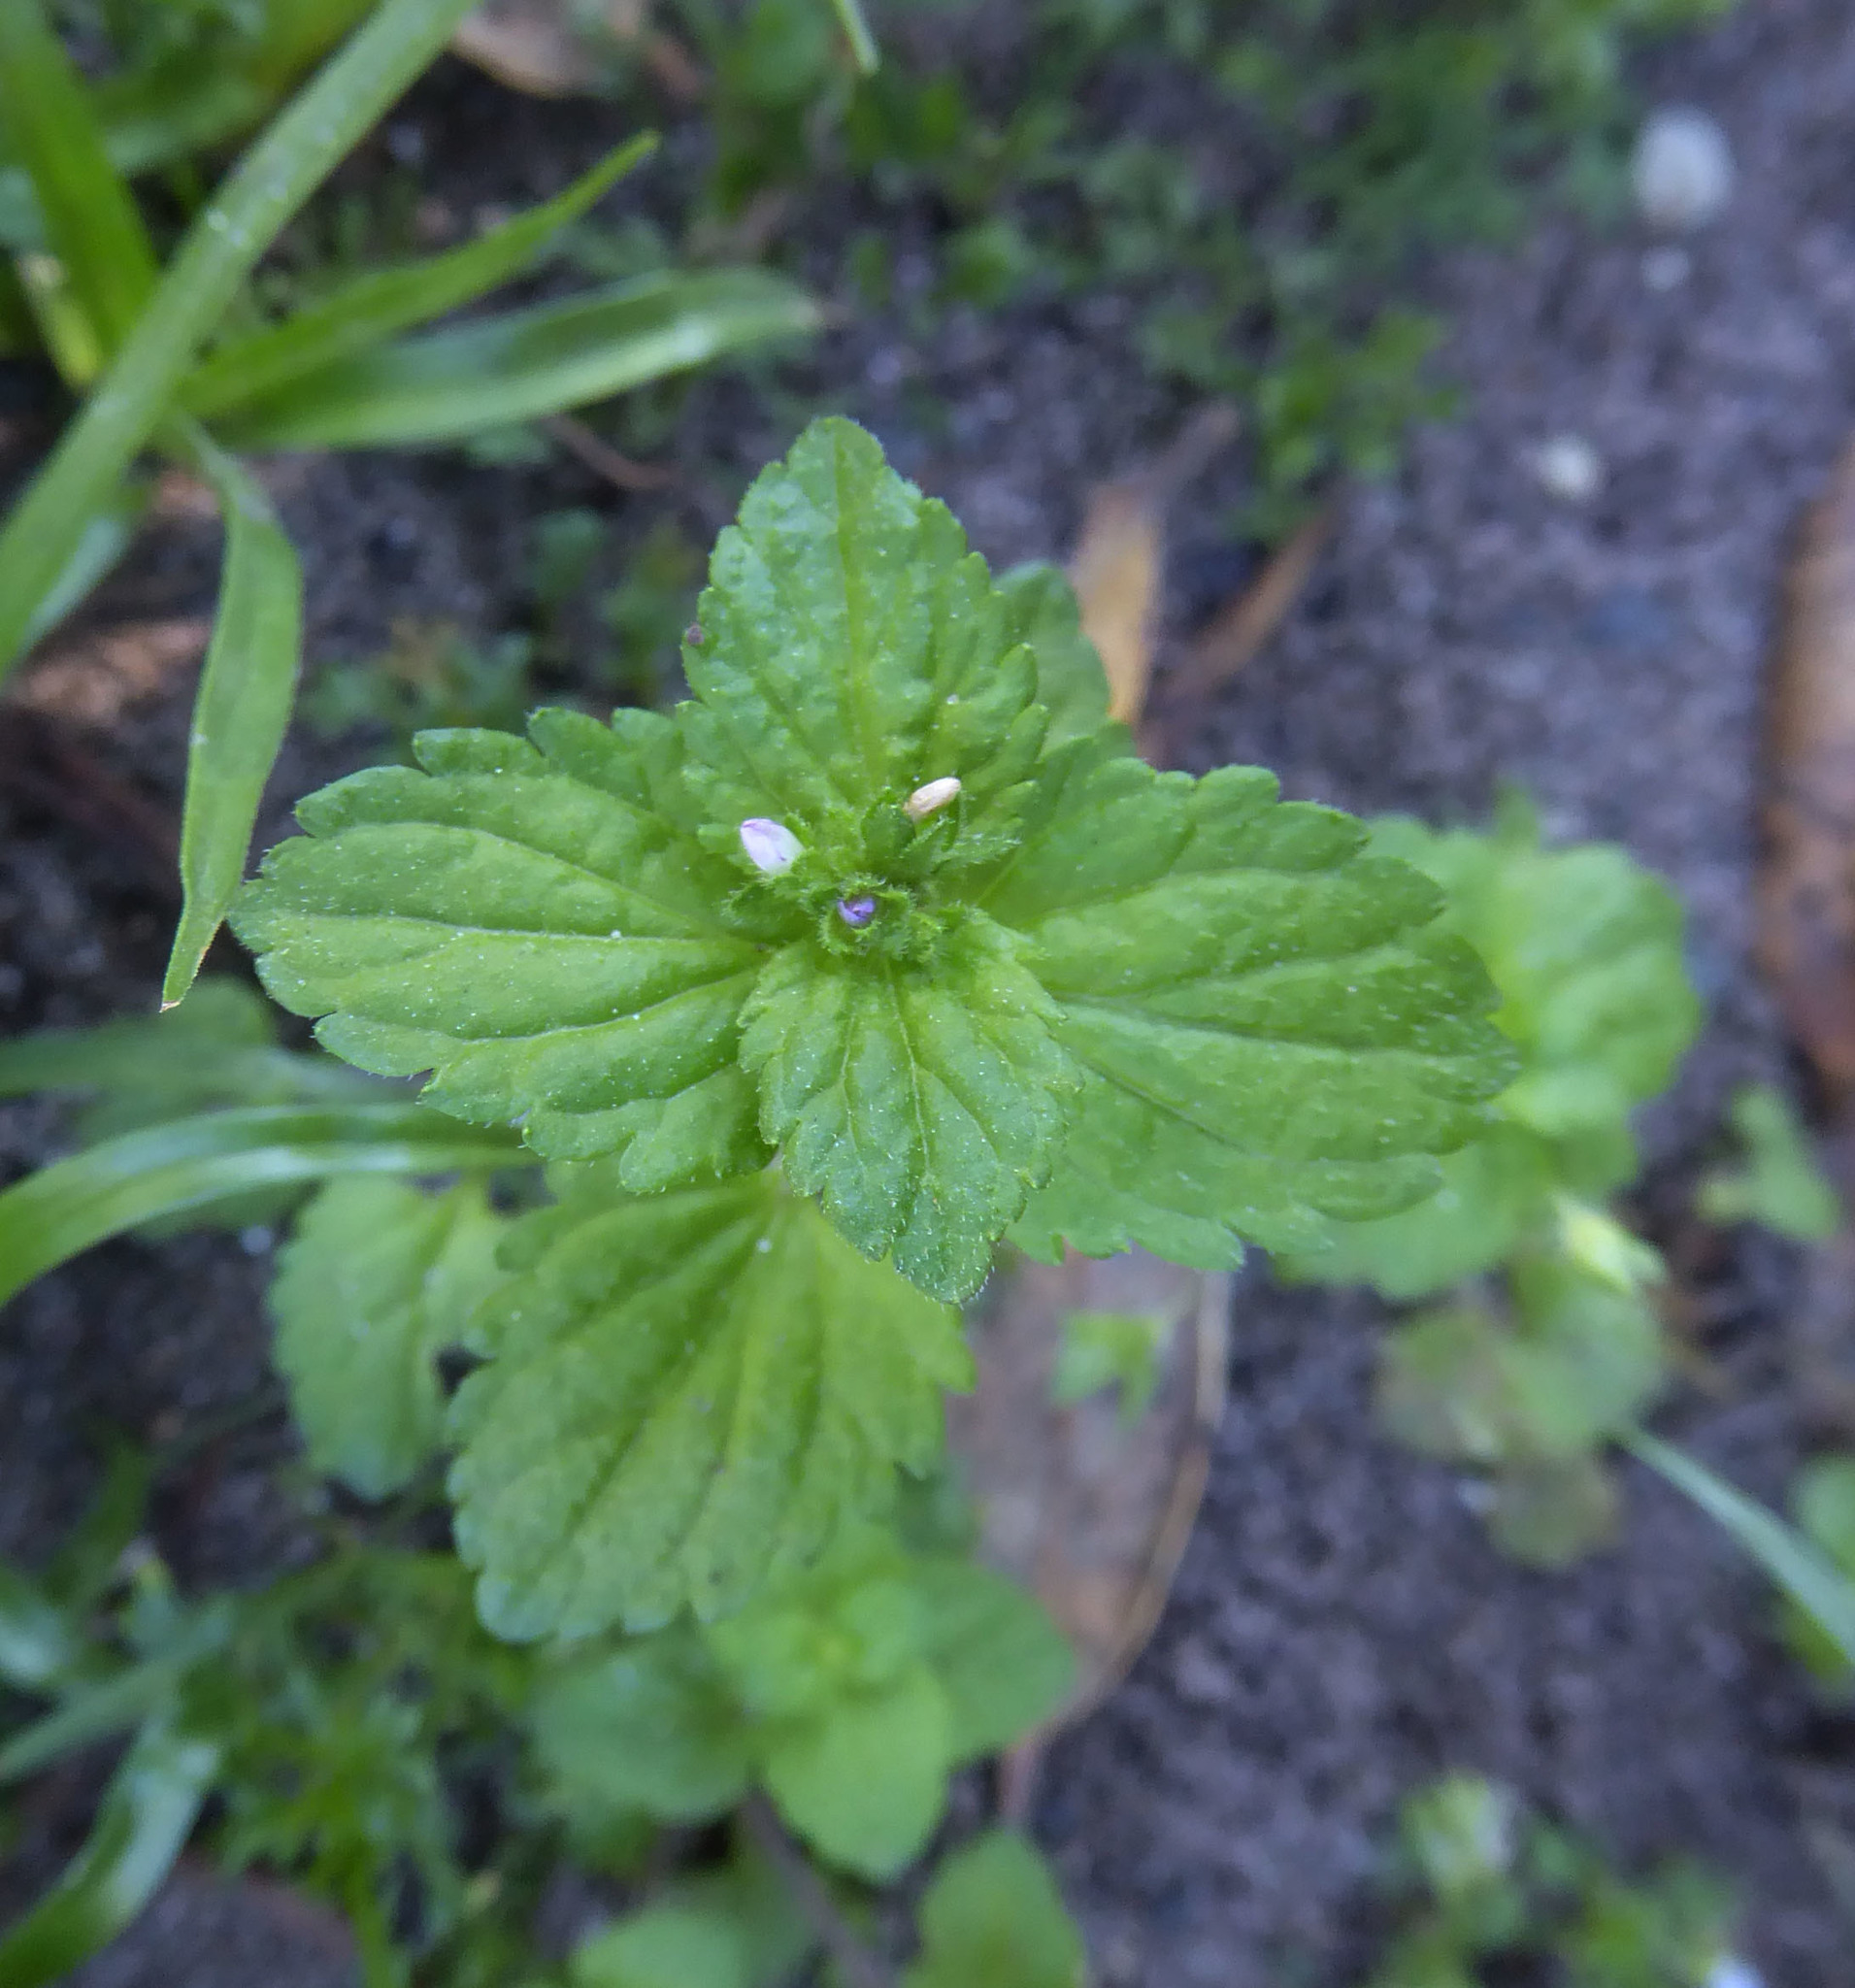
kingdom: Plantae
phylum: Tracheophyta
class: Magnoliopsida
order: Lamiales
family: Plantaginaceae
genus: Veronica
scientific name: Veronica javanica
